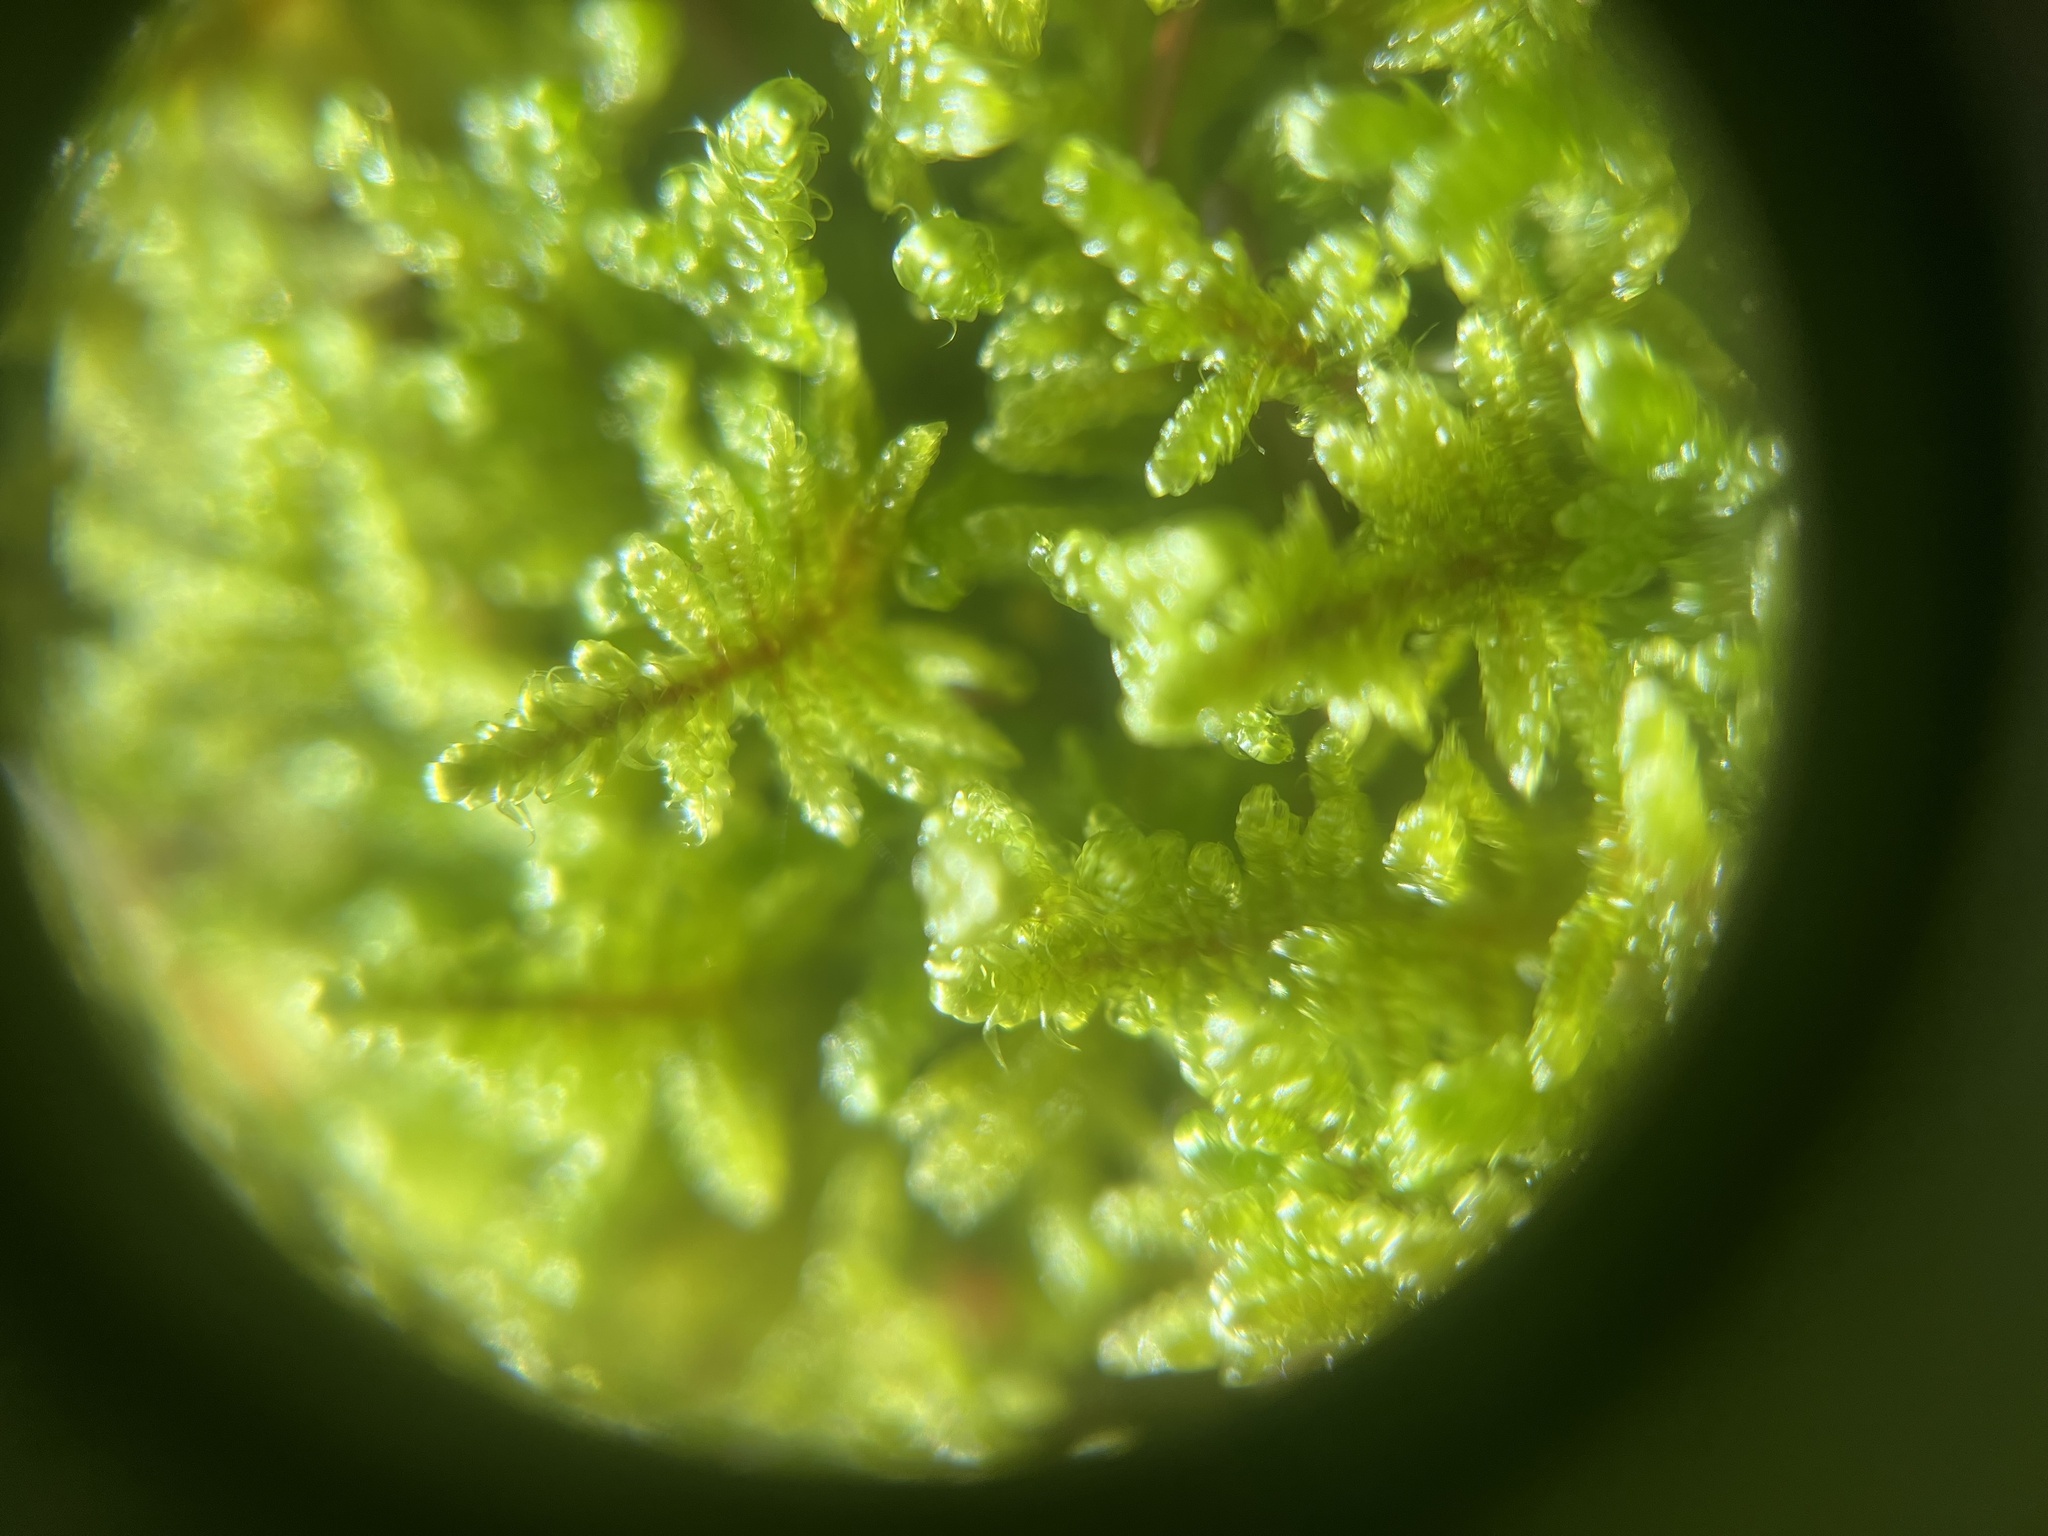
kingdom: Plantae
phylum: Bryophyta
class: Bryopsida
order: Hypnales
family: Callicladiaceae
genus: Callicladium
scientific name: Callicladium imponens
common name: Brocade moss
